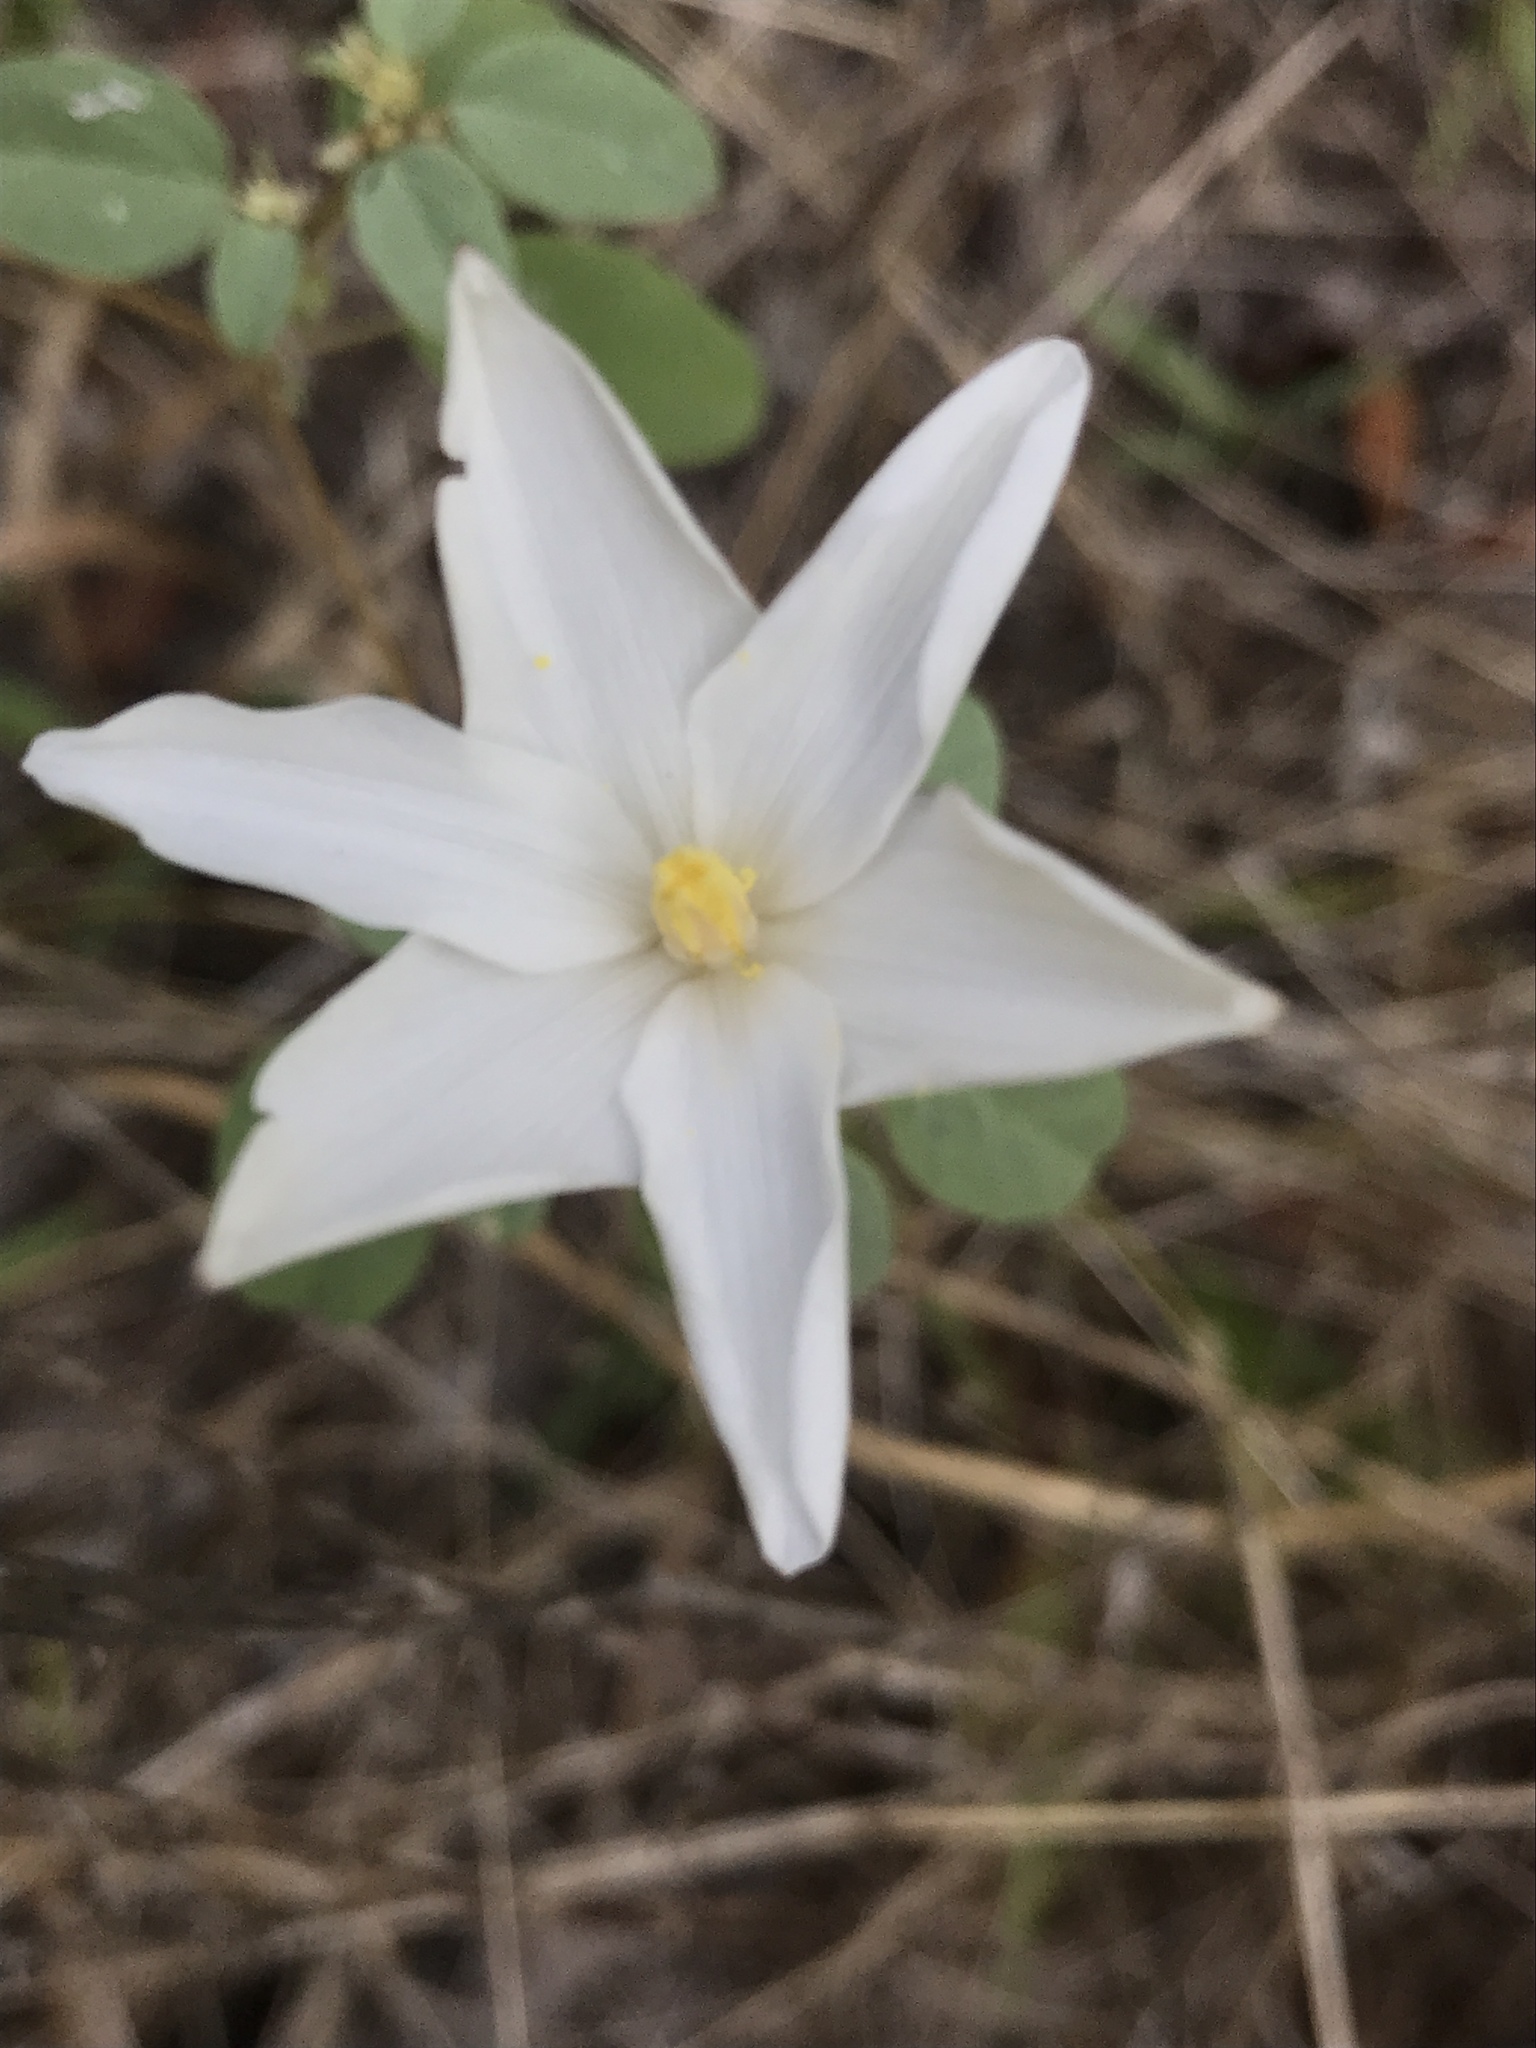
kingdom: Plantae
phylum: Tracheophyta
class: Liliopsida
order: Asparagales
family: Amaryllidaceae
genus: Zephyranthes
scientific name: Zephyranthes chlorosolen
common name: Evening rain-lily
